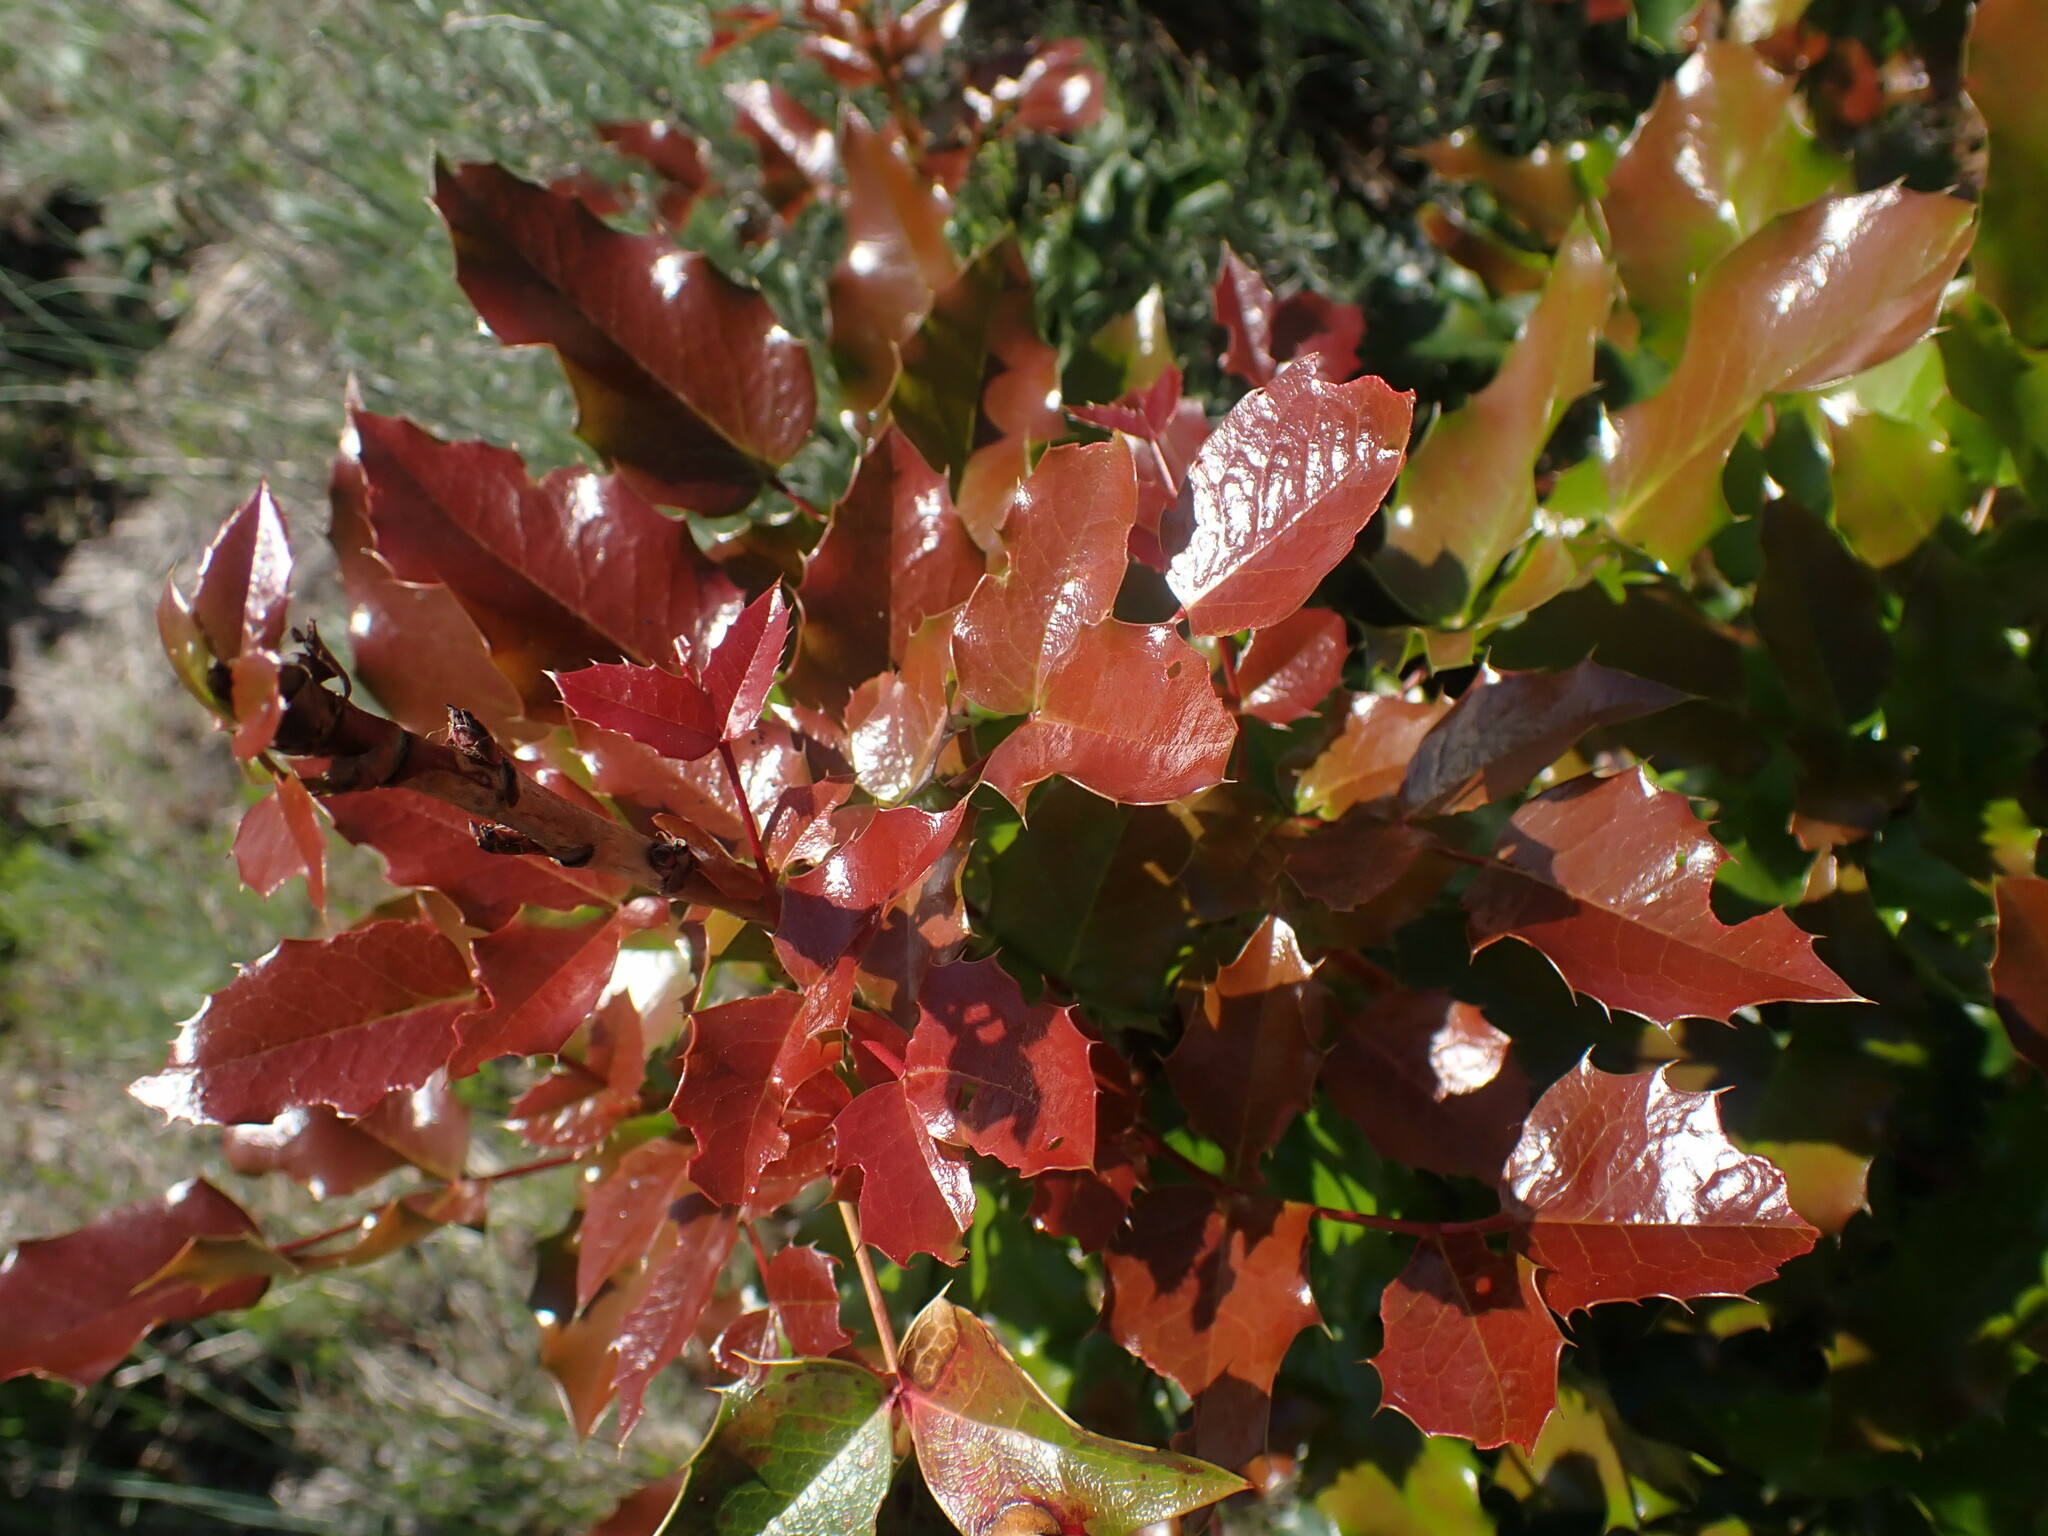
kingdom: Plantae
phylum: Tracheophyta
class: Magnoliopsida
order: Ranunculales
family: Berberidaceae
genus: Mahonia
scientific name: Mahonia aquifolium
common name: Oregon-grape
